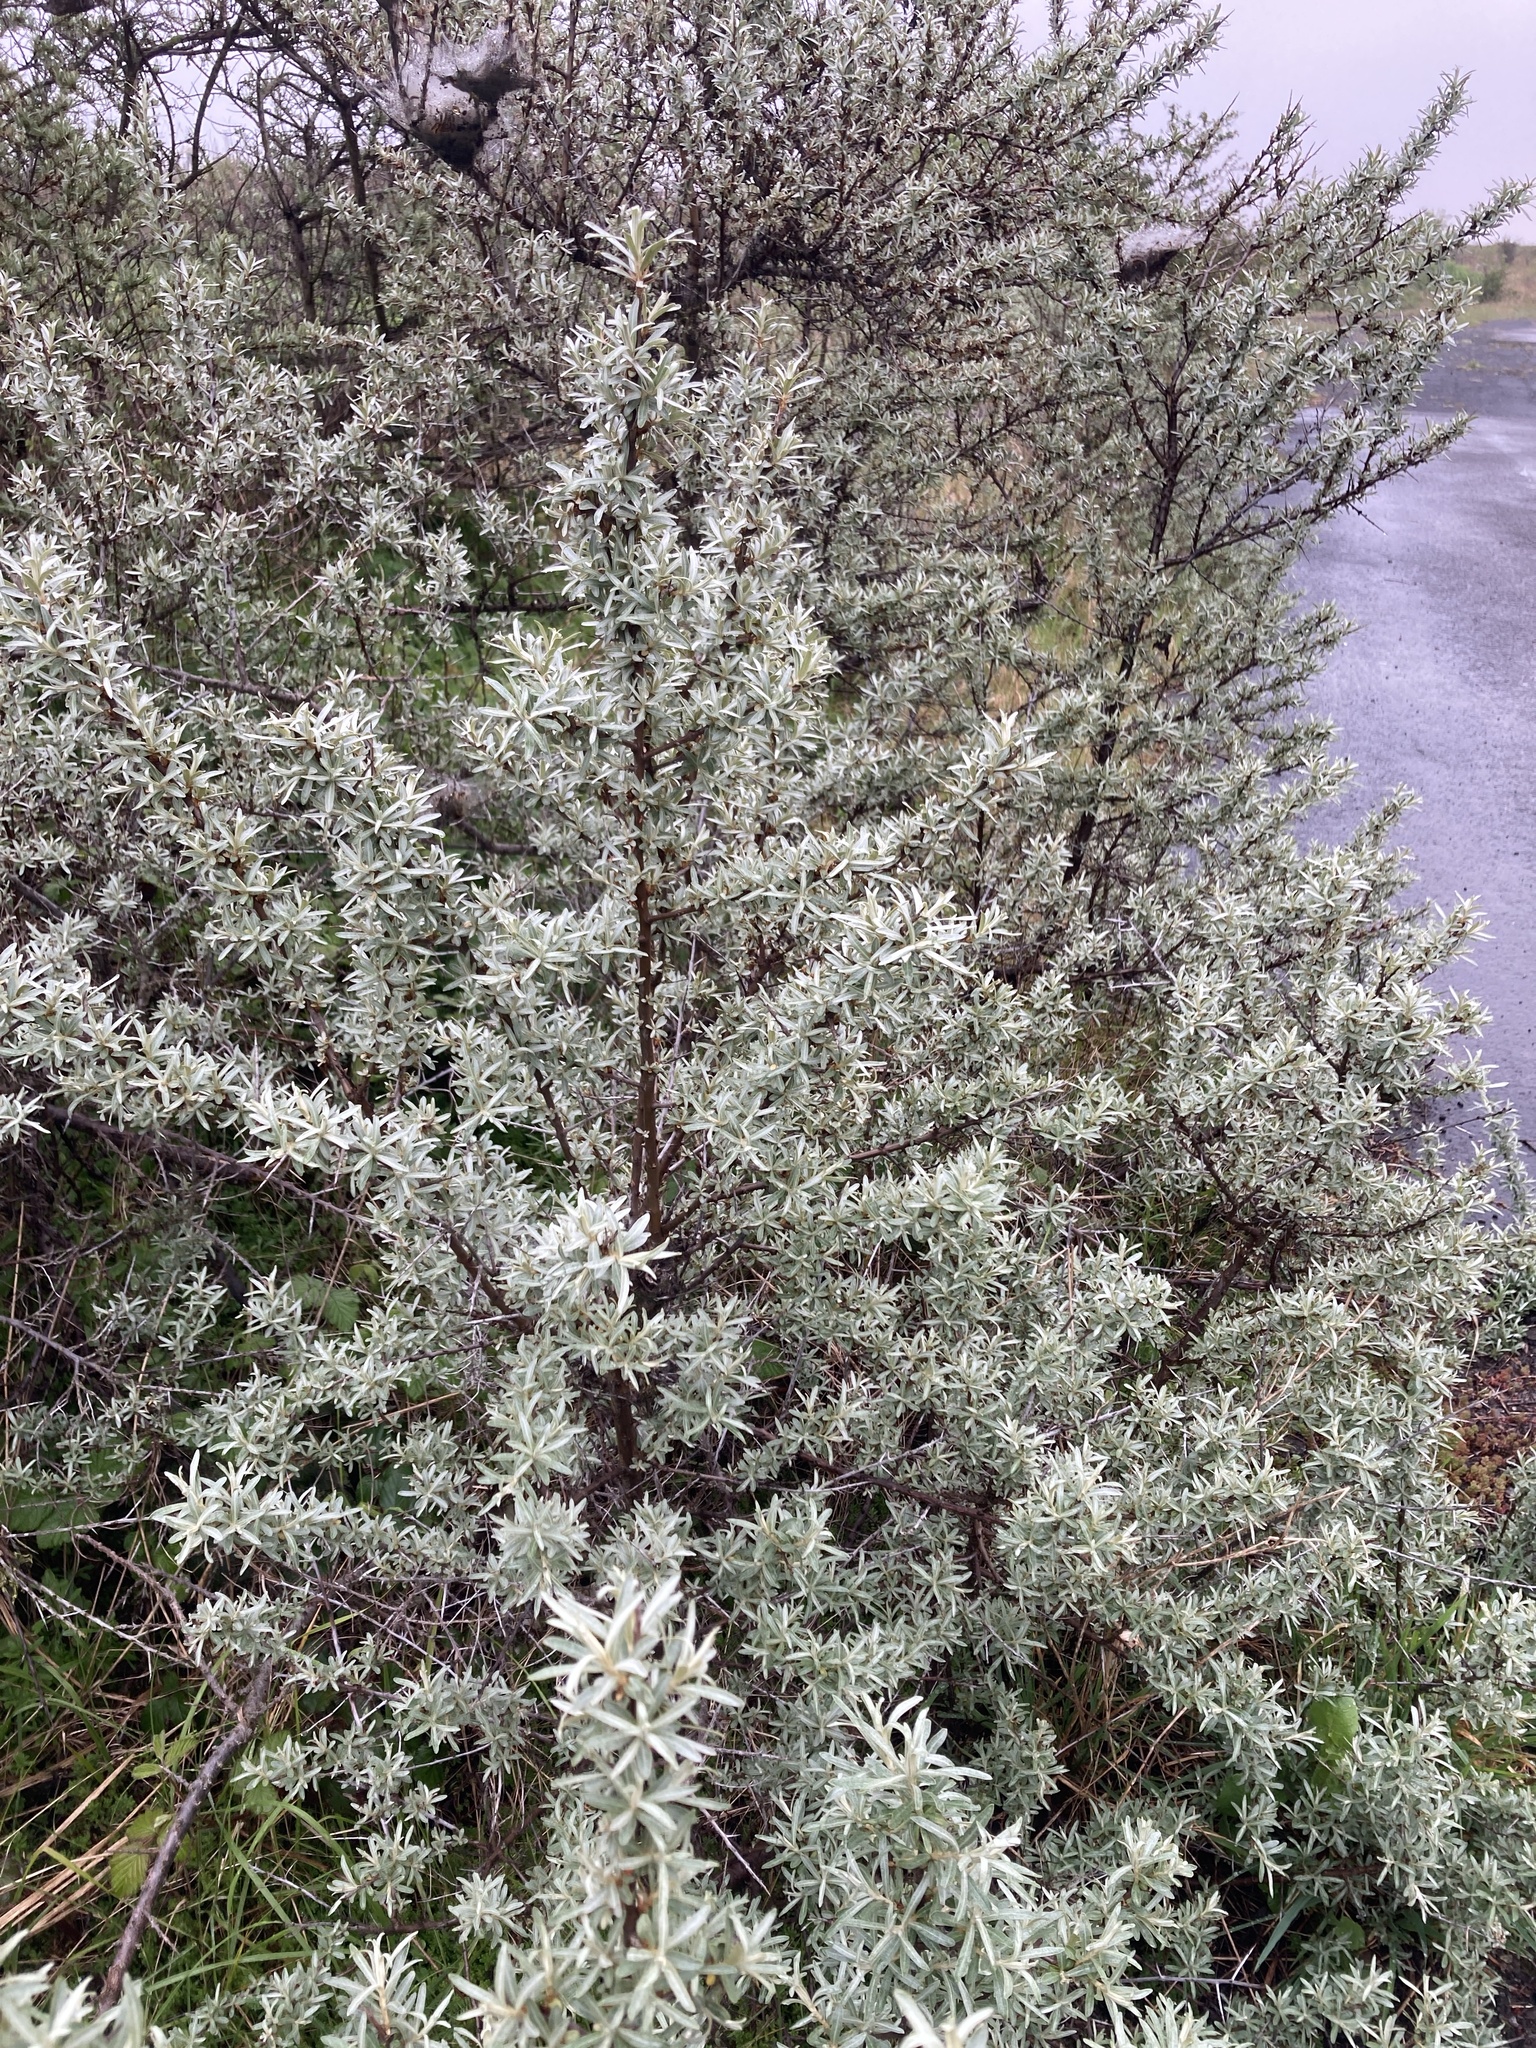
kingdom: Plantae
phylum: Tracheophyta
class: Magnoliopsida
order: Rosales
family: Elaeagnaceae
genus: Hippophae
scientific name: Hippophae rhamnoides
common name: Sea-buckthorn
